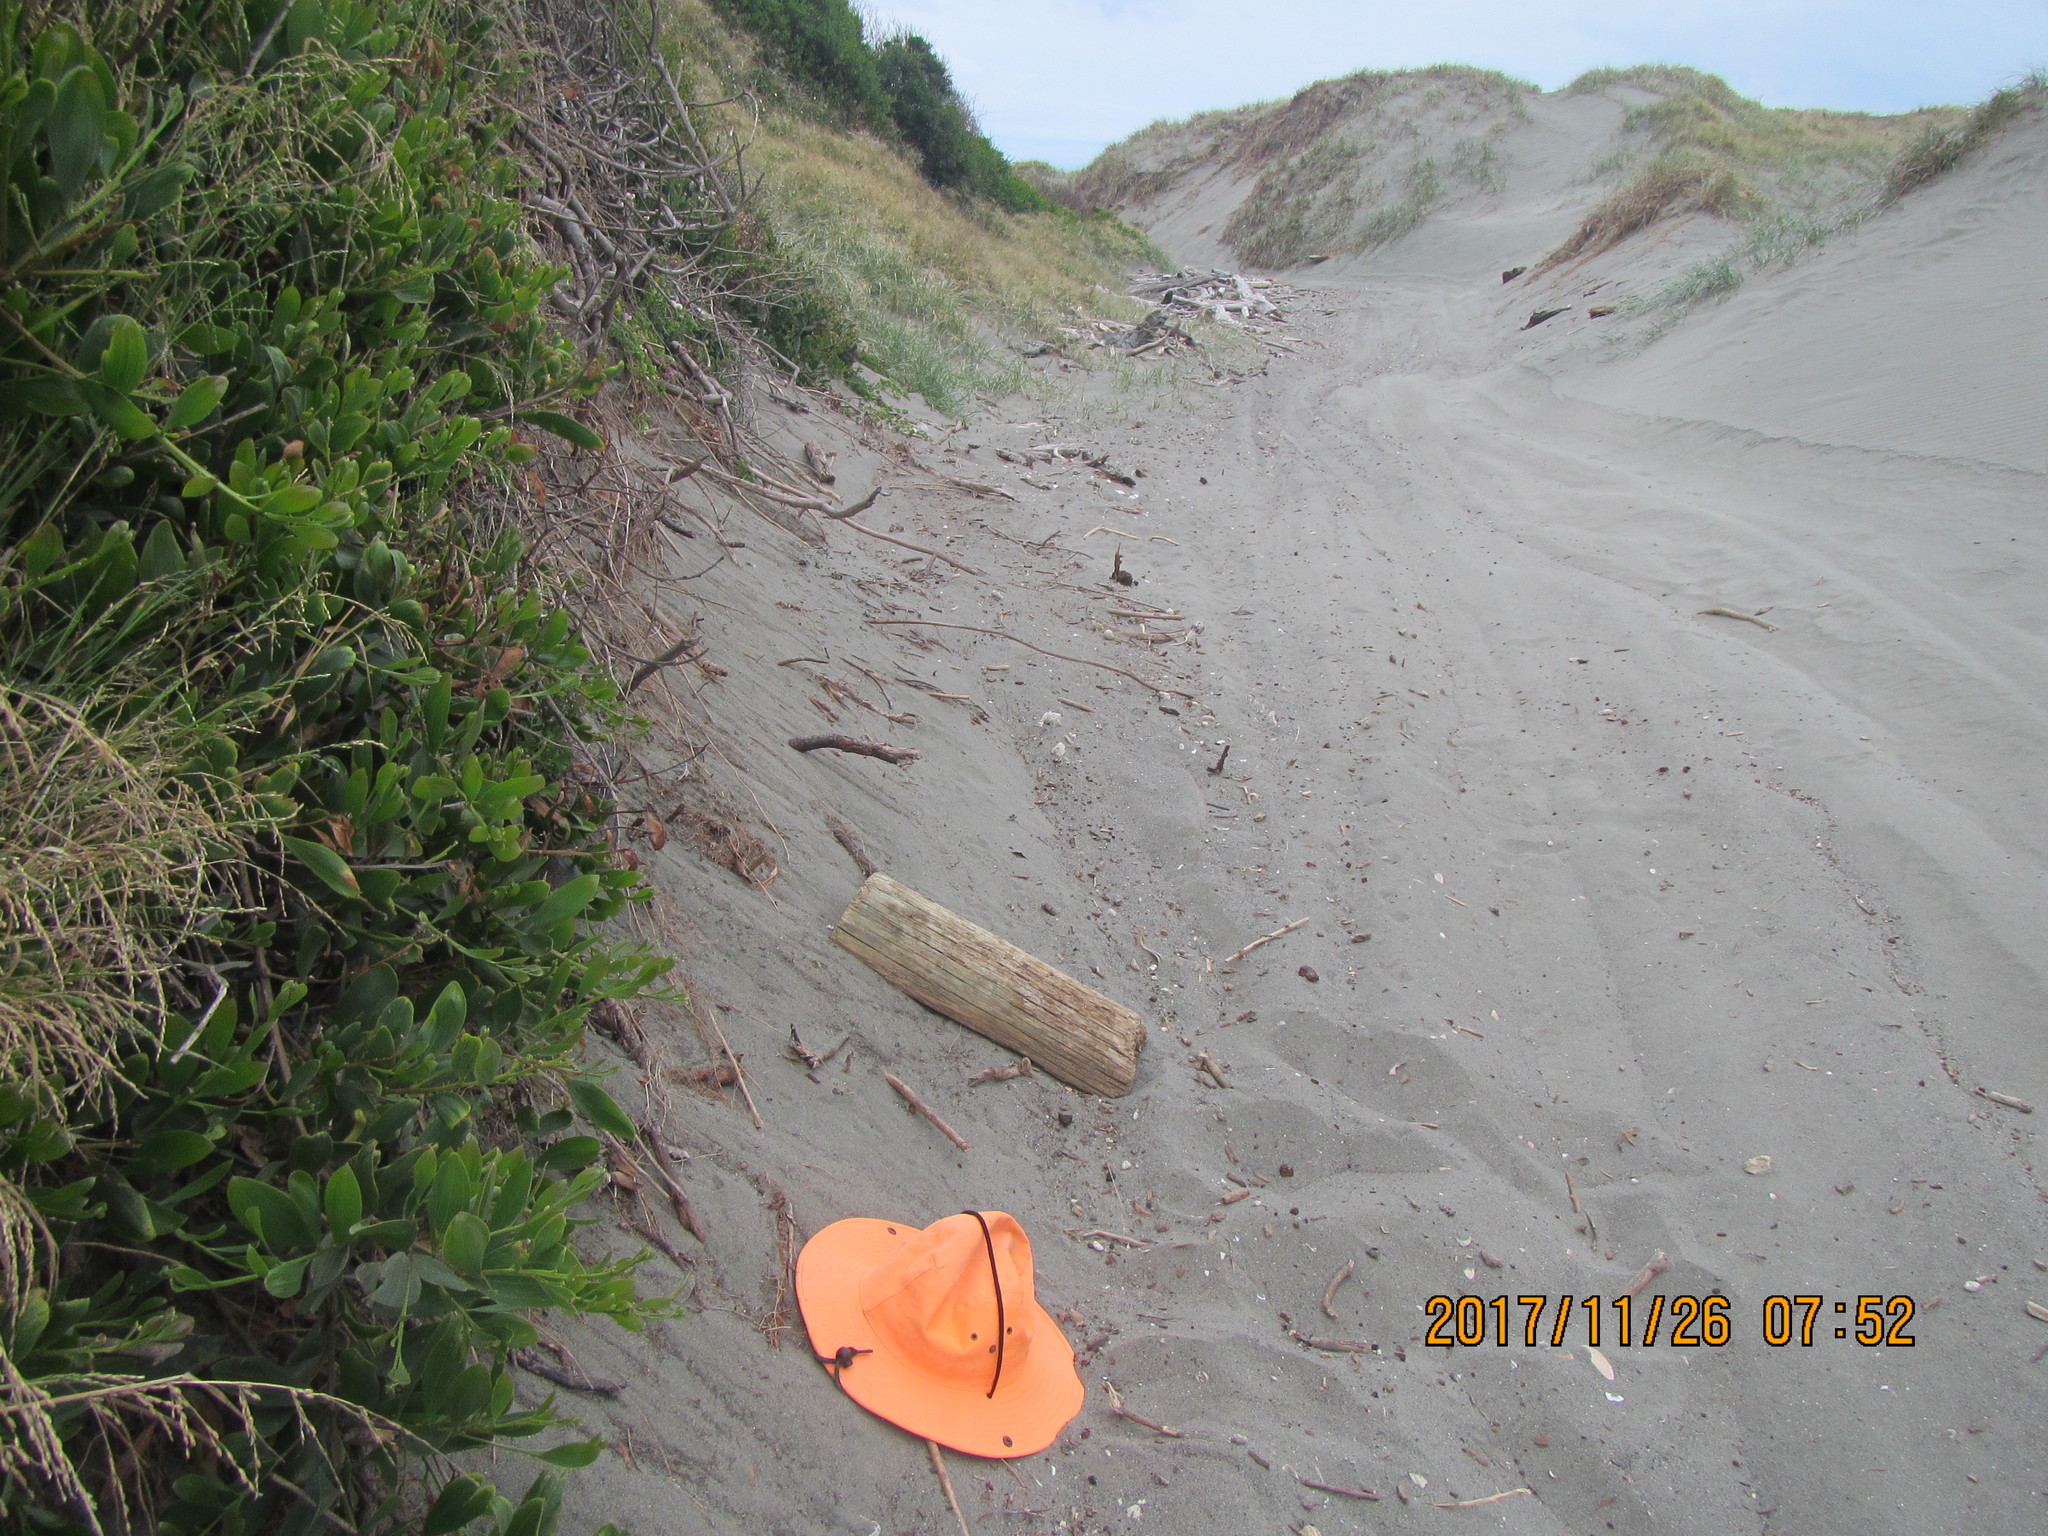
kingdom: Animalia
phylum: Arthropoda
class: Arachnida
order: Araneae
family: Lycosidae
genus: Anoteropsis
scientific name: Anoteropsis litoralis
